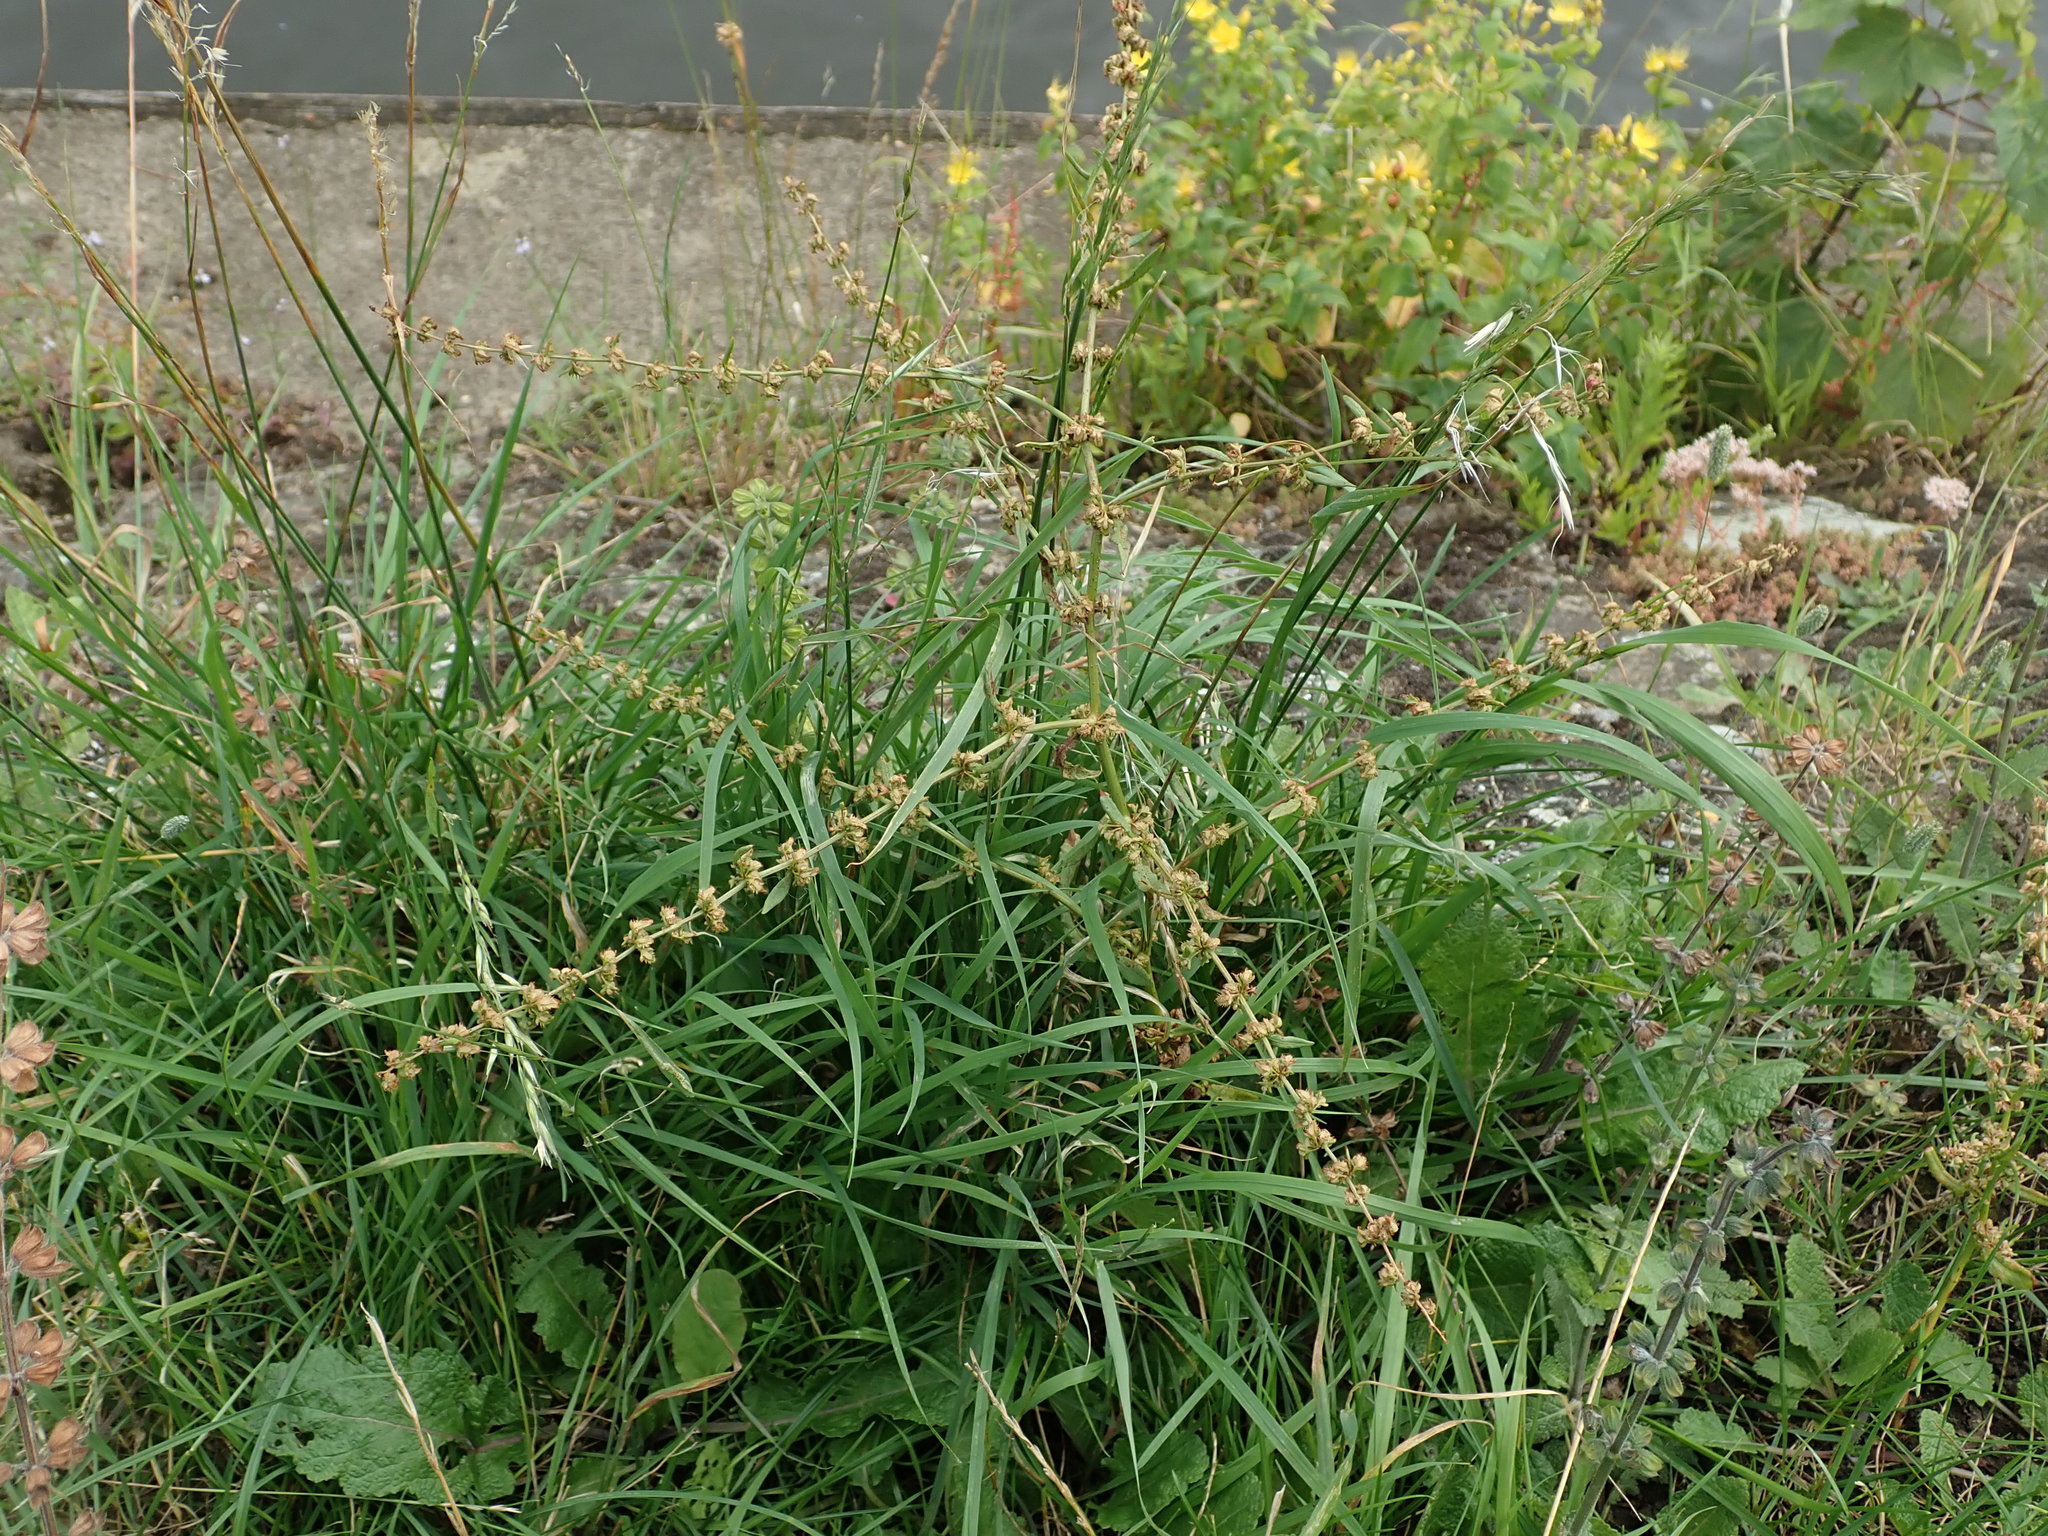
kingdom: Plantae
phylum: Tracheophyta
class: Magnoliopsida
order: Caryophyllales
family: Polygonaceae
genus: Rumex
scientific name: Rumex pulcher
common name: Fiddle dock
